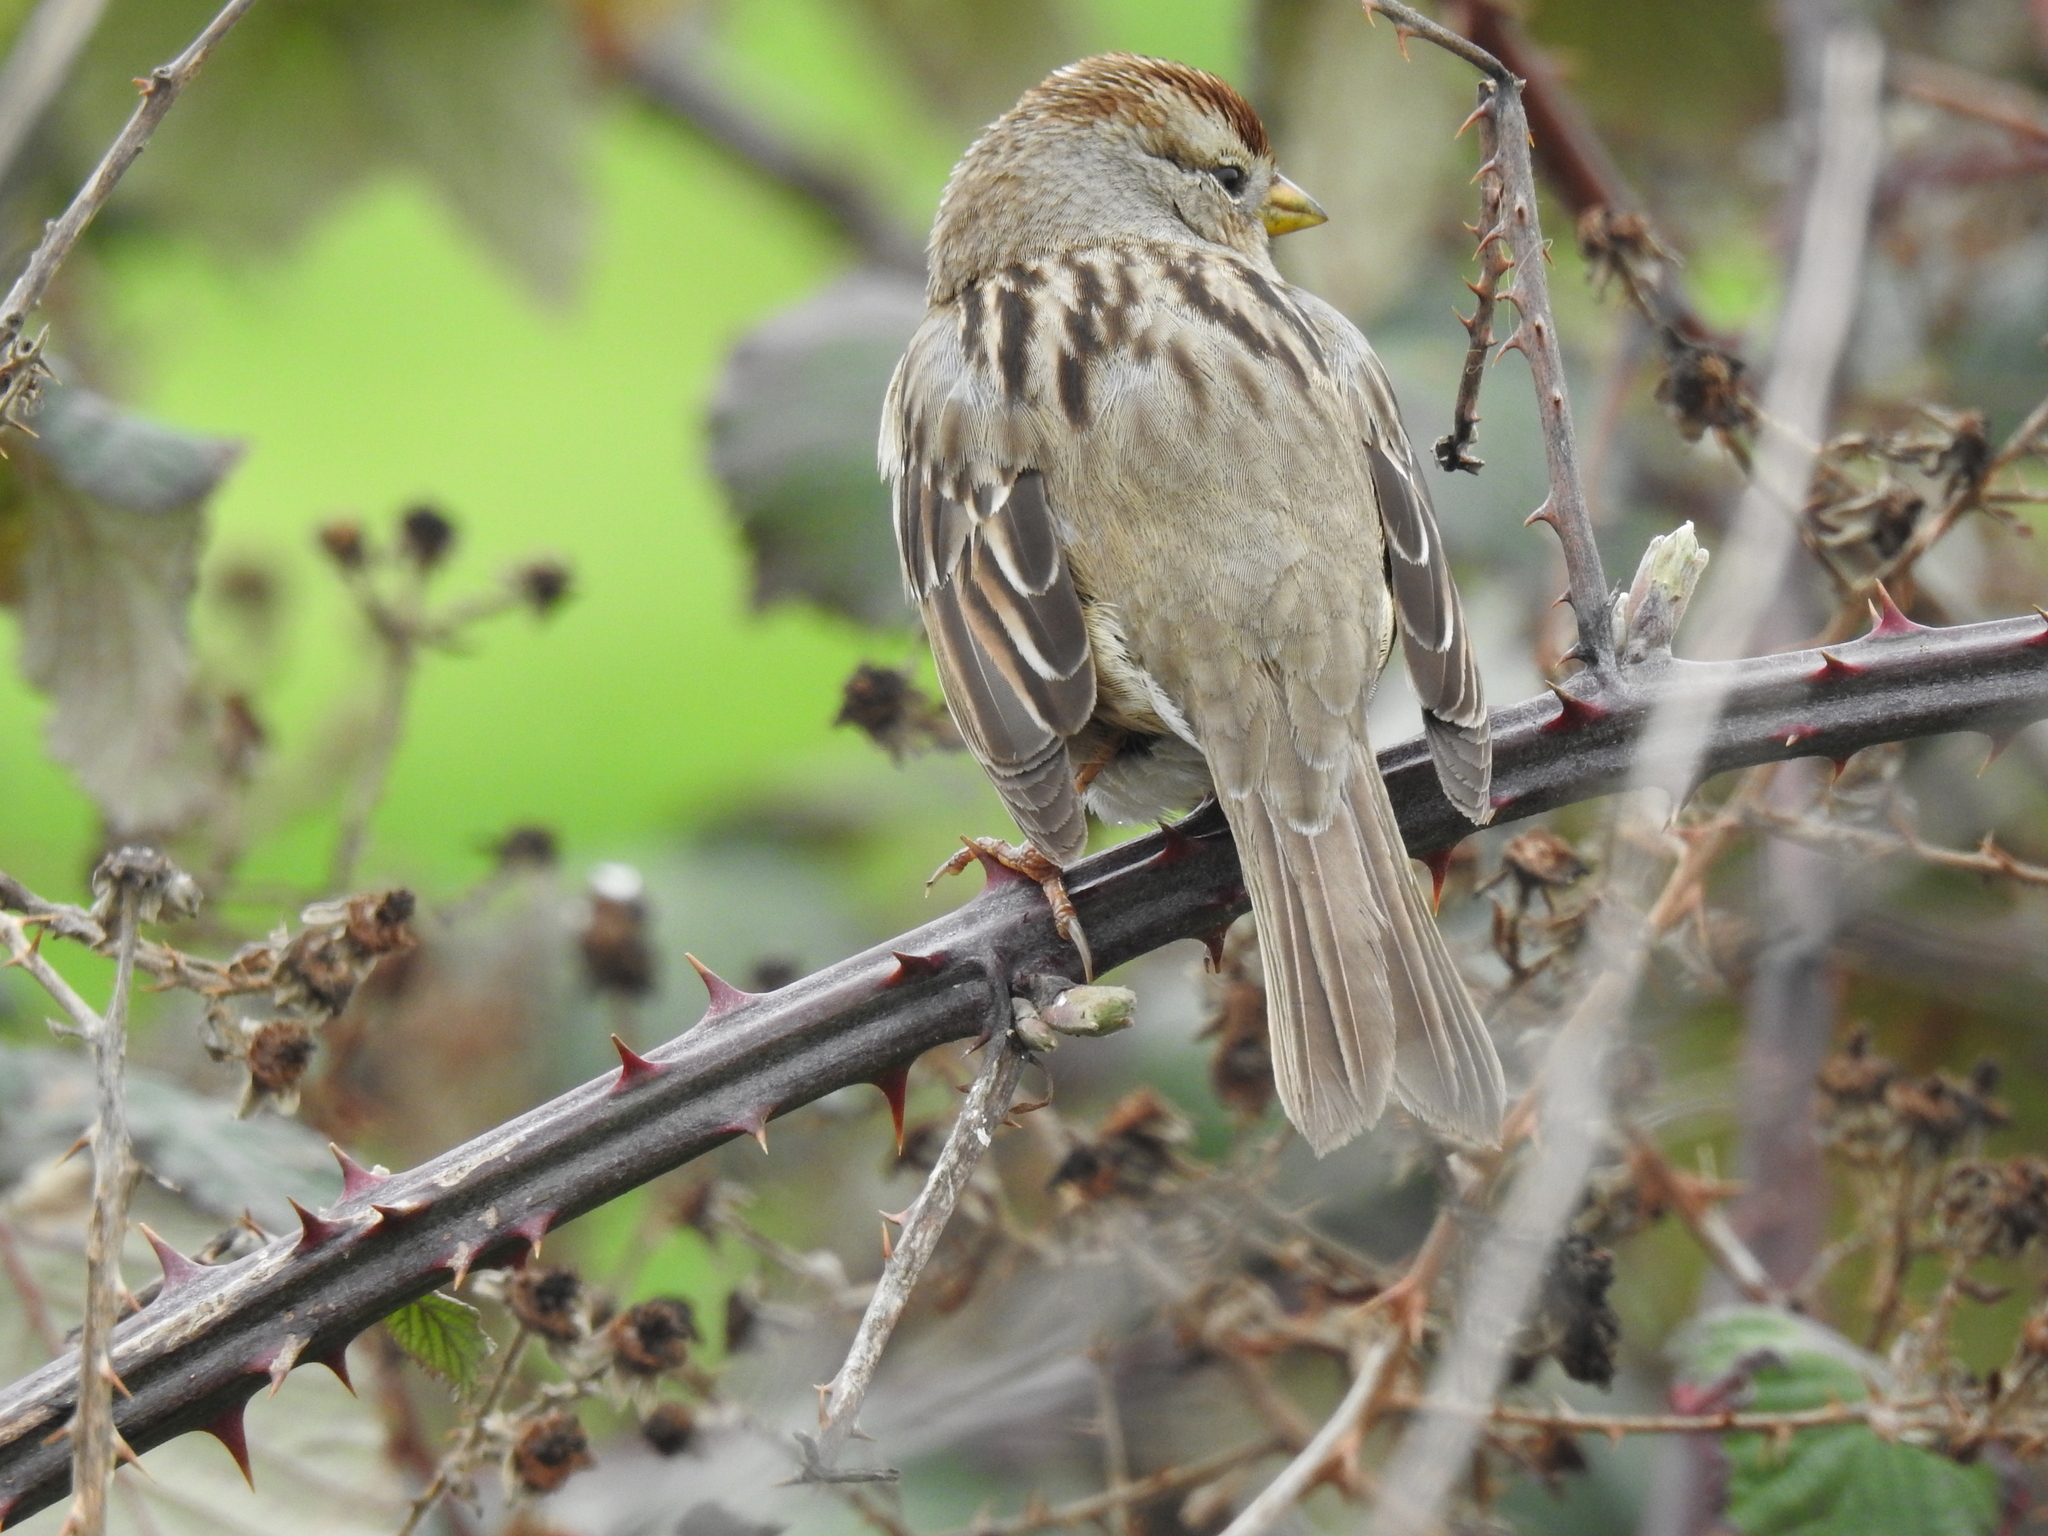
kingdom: Animalia
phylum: Chordata
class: Aves
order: Passeriformes
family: Passerellidae
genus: Zonotrichia
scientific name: Zonotrichia leucophrys
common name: White-crowned sparrow
